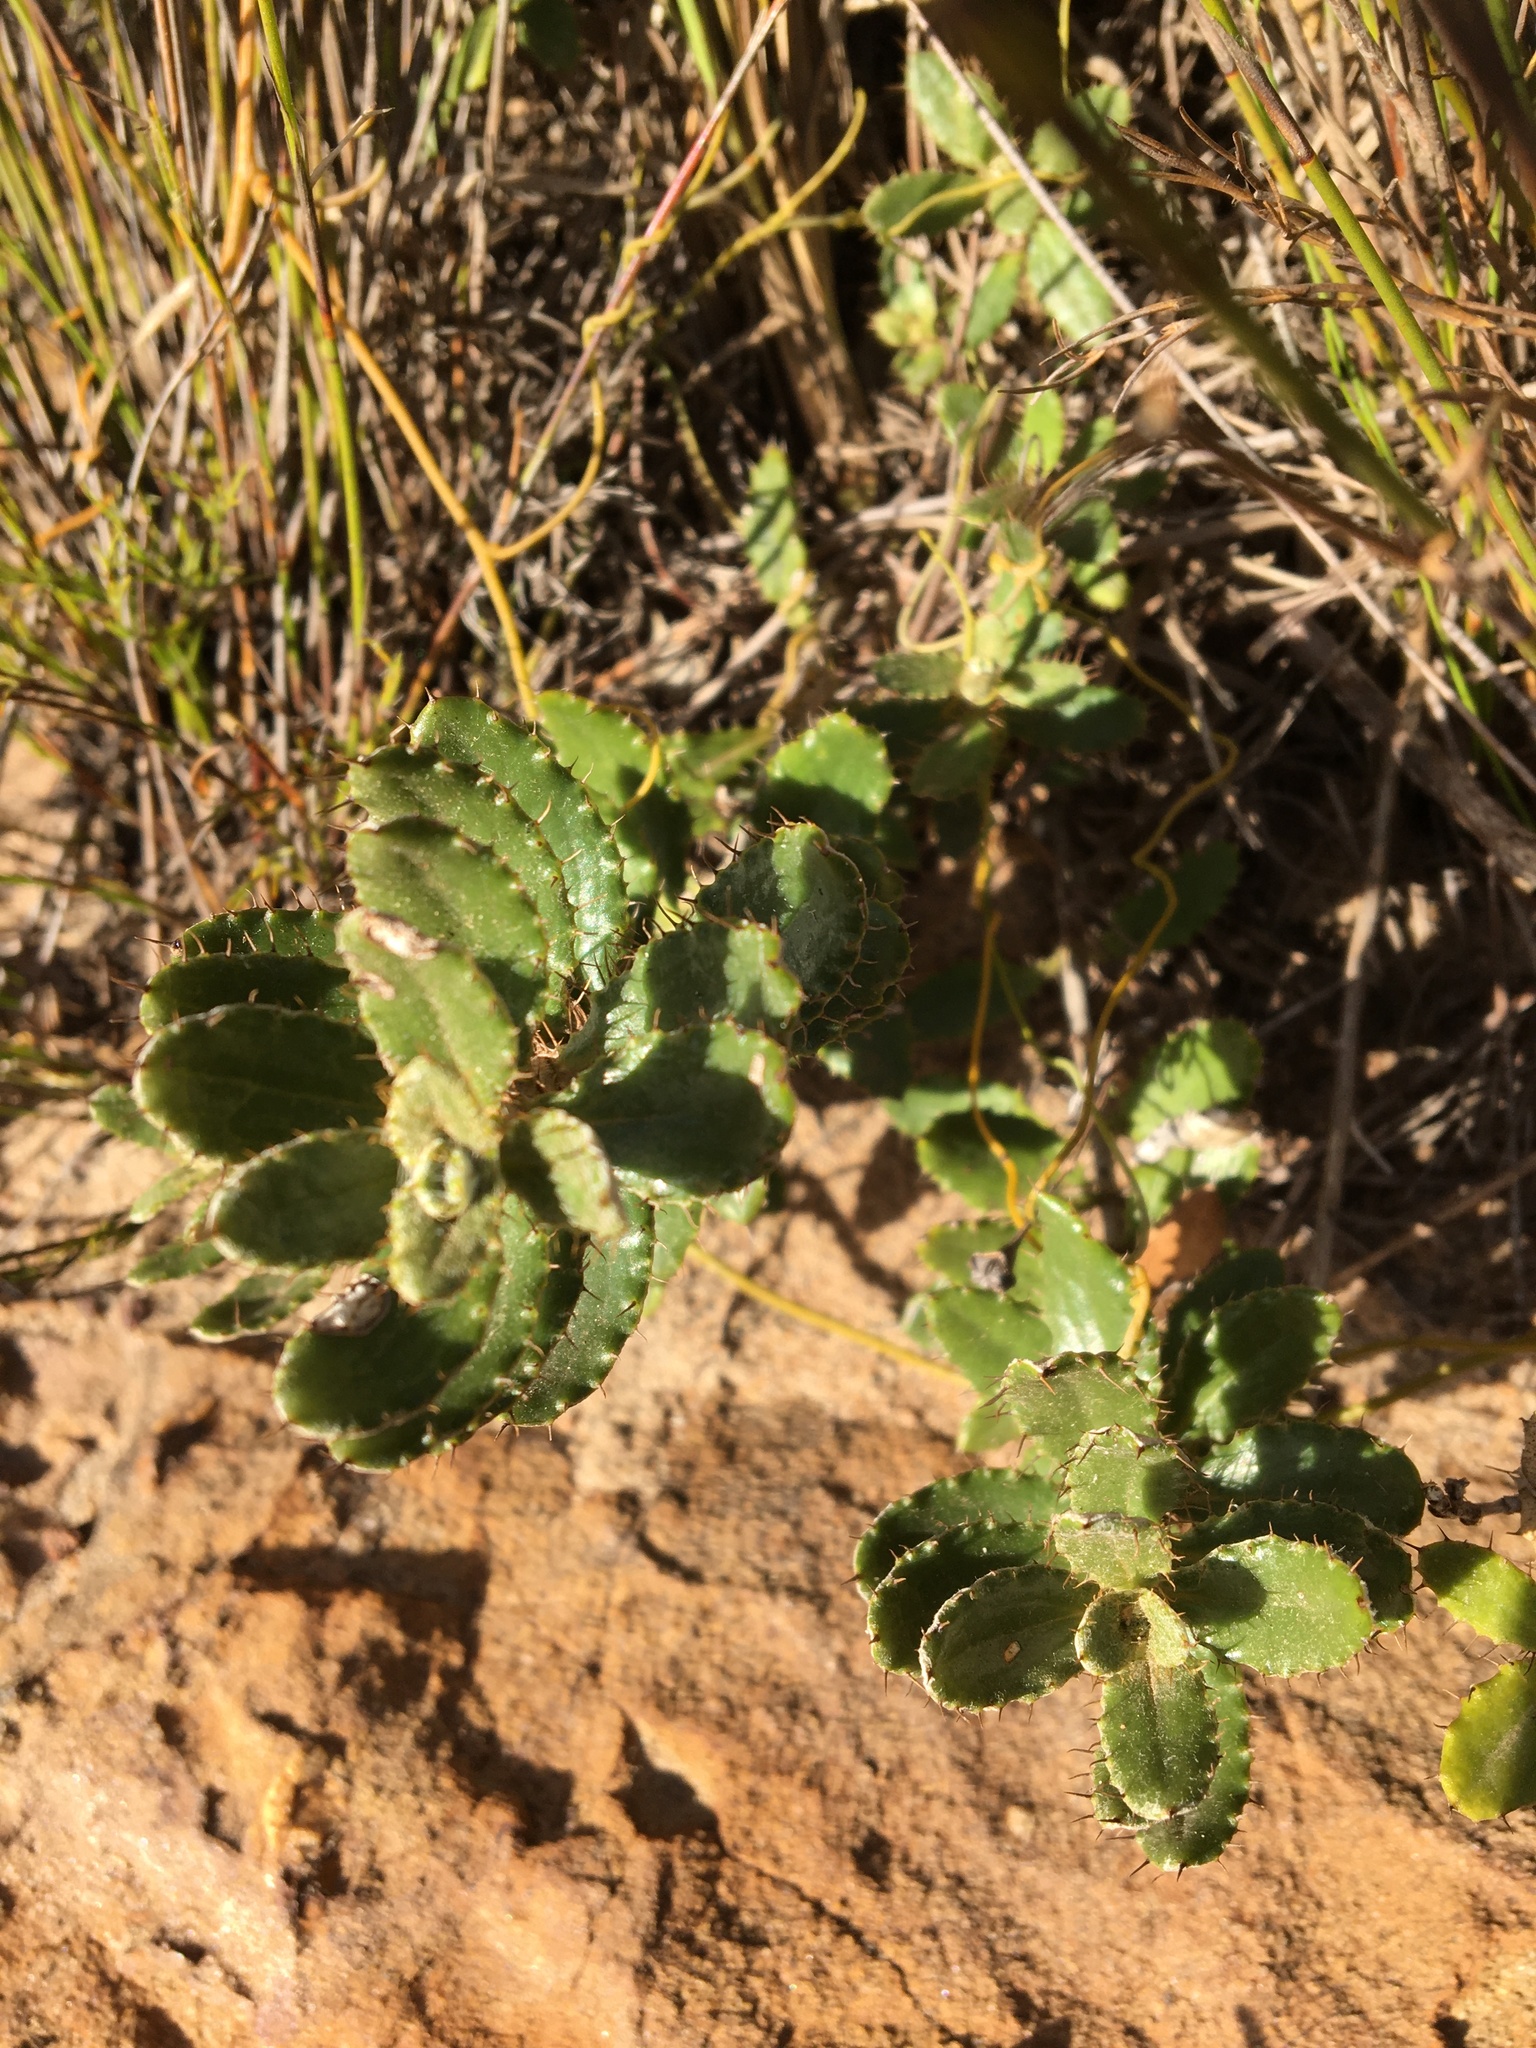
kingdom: Plantae
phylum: Tracheophyta
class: Magnoliopsida
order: Asterales
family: Asteraceae
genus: Berkheya
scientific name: Berkheya barbata
